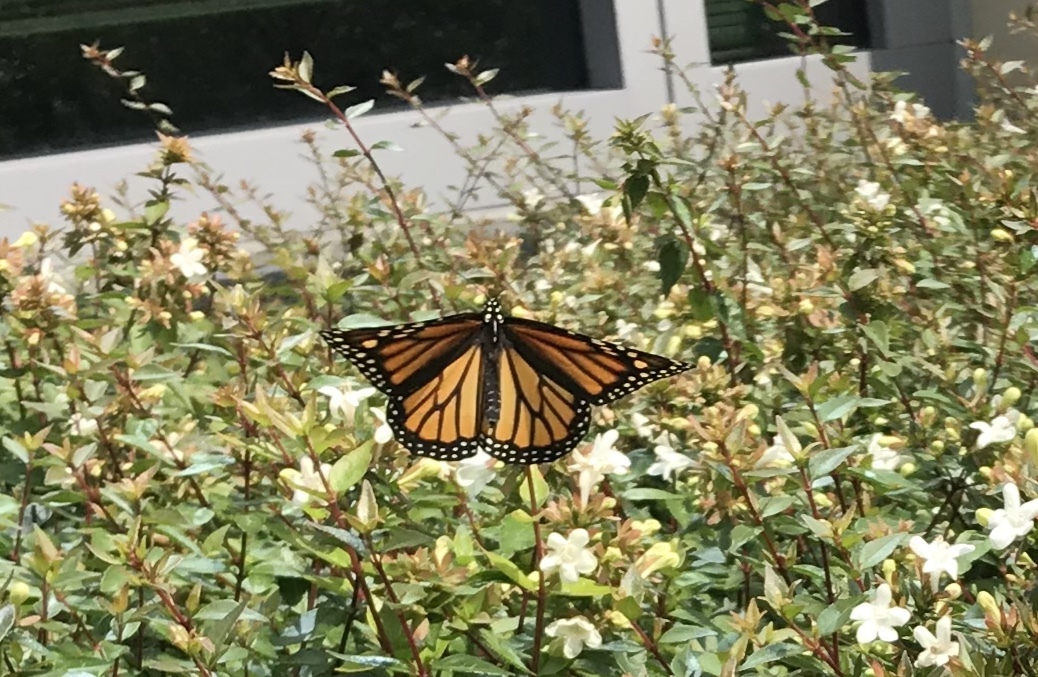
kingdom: Animalia
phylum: Arthropoda
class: Insecta
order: Lepidoptera
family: Nymphalidae
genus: Danaus
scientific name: Danaus plexippus
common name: Monarch
